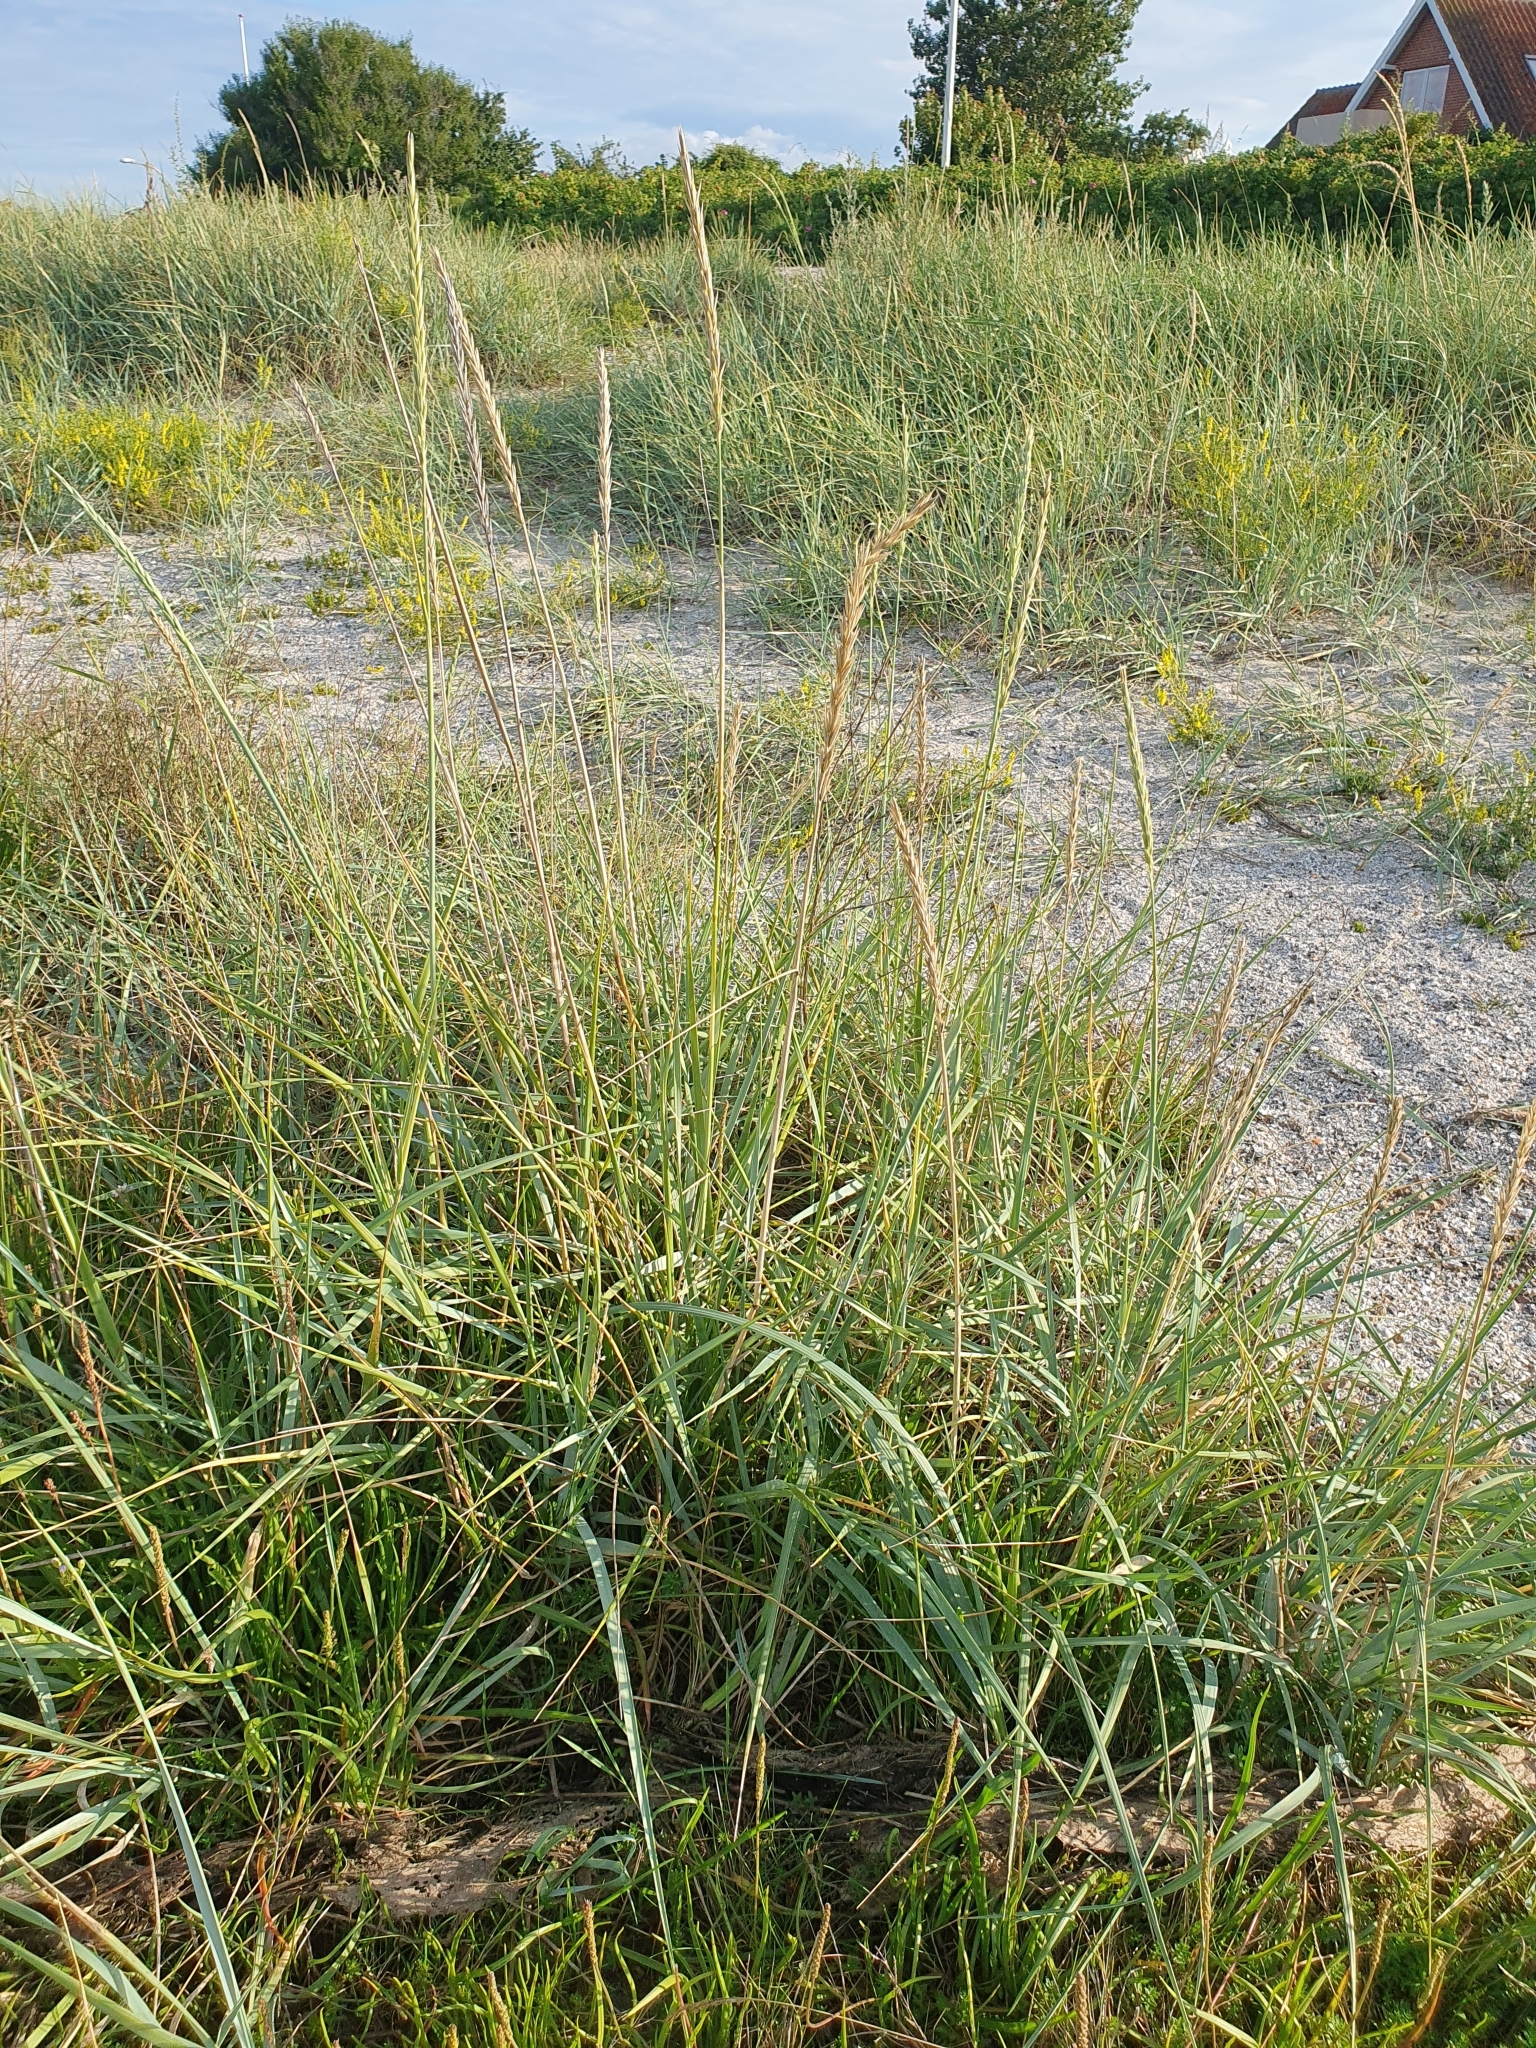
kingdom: Plantae
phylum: Tracheophyta
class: Liliopsida
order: Poales
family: Poaceae
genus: Leymus
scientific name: Leymus arenarius
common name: Lyme-grass
